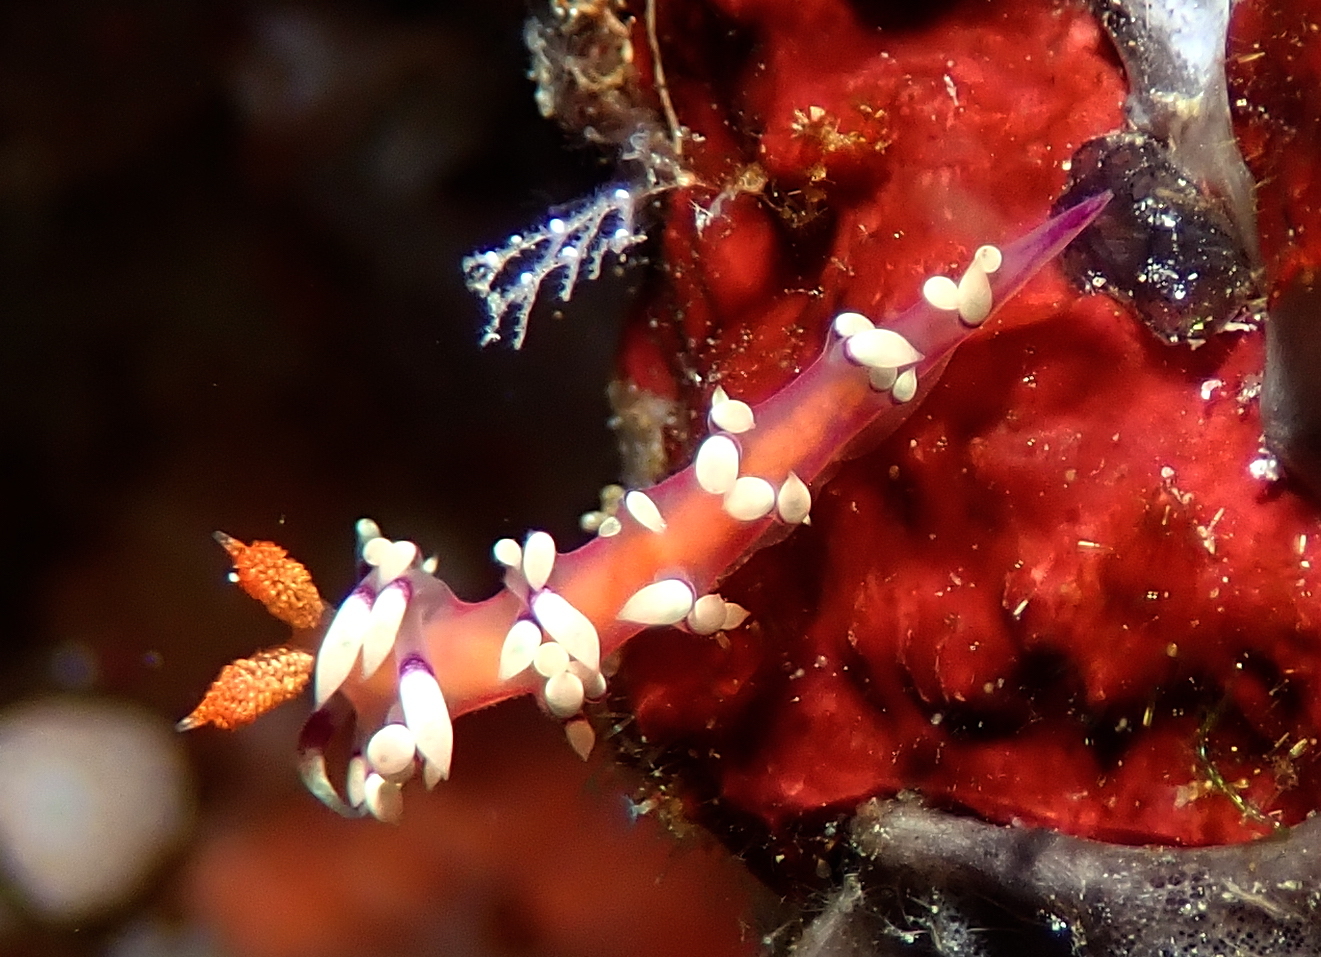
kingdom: Animalia
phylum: Mollusca
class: Gastropoda
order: Nudibranchia
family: Flabellinidae
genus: Coryphellina
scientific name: Coryphellina exoptata
